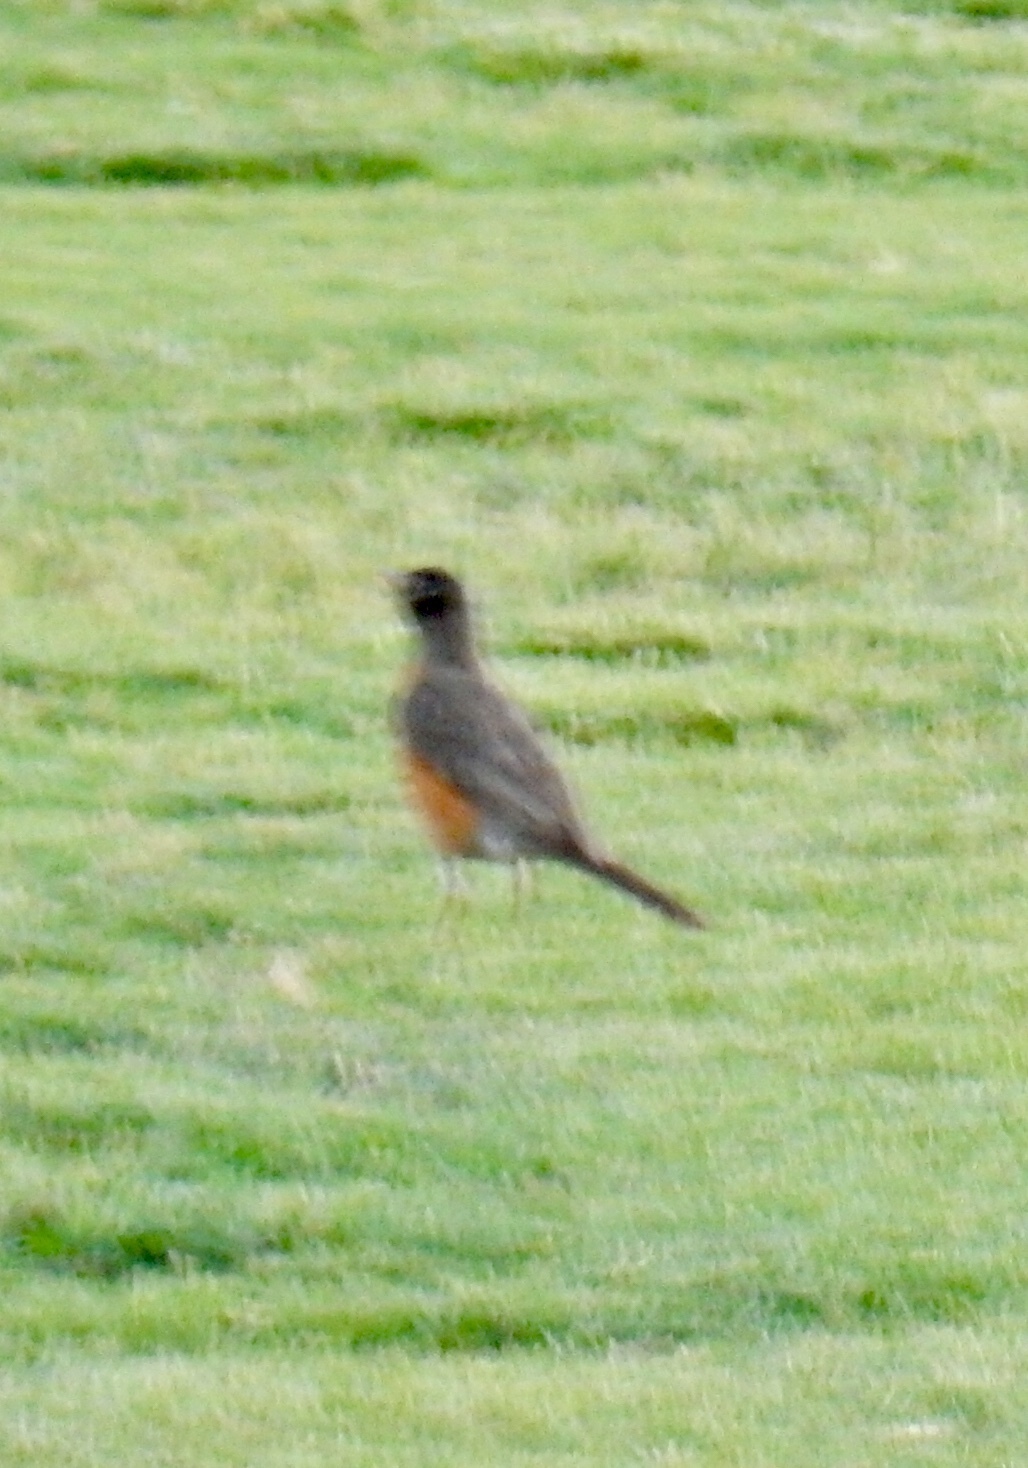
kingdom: Animalia
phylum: Chordata
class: Aves
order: Passeriformes
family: Turdidae
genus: Turdus
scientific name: Turdus migratorius
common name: American robin
